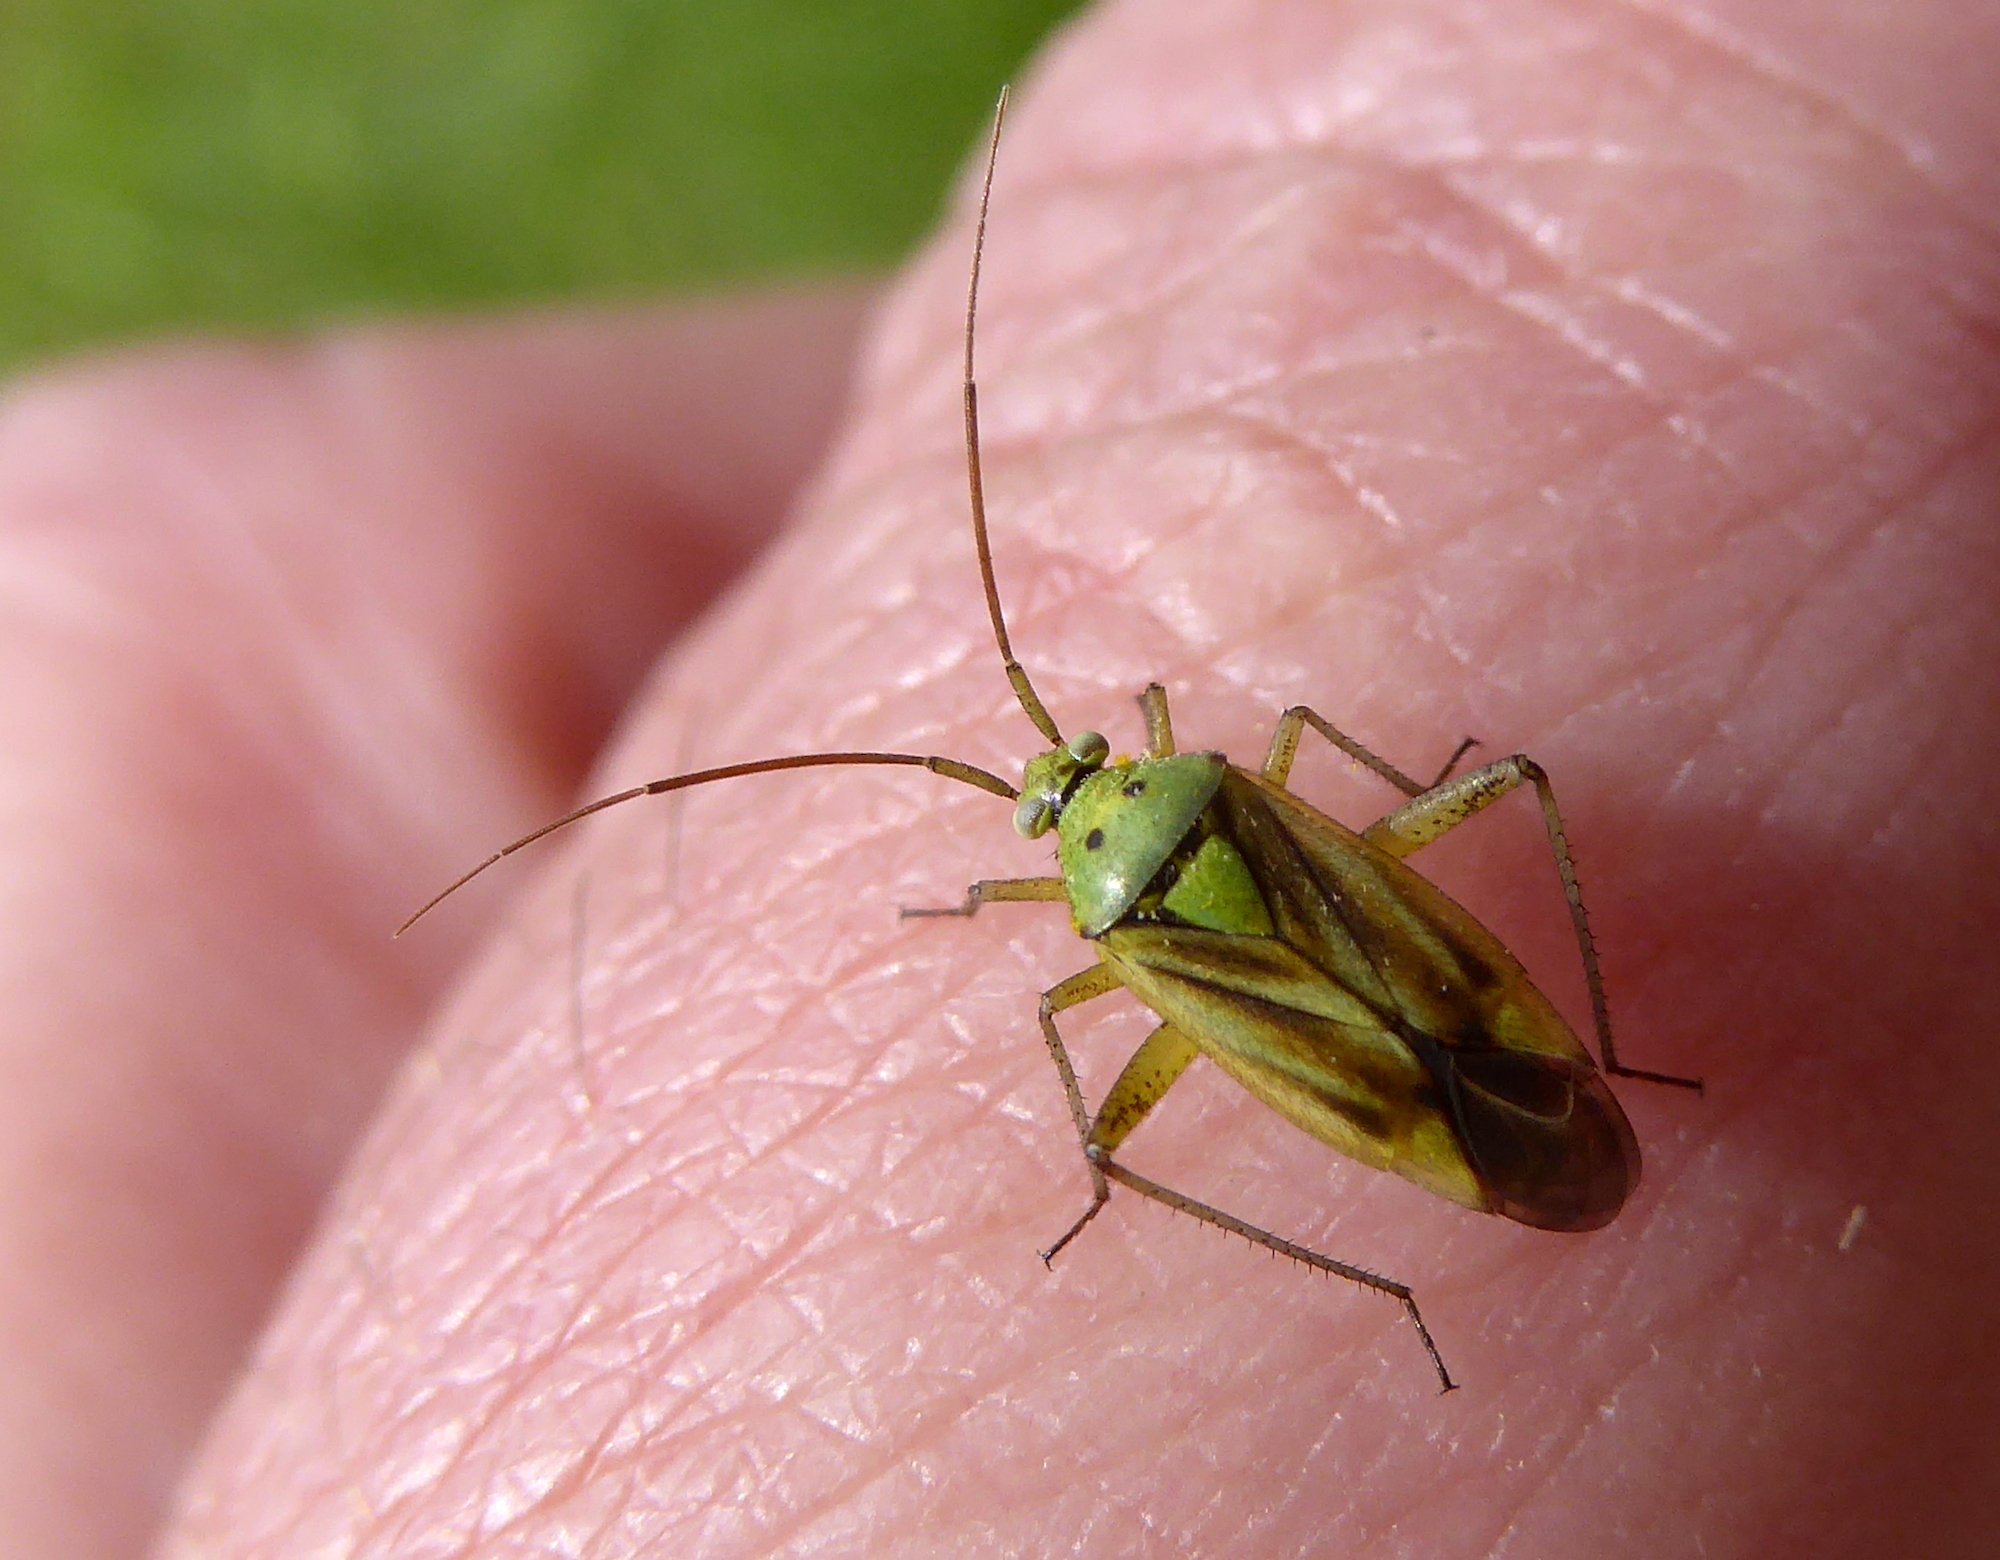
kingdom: Animalia
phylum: Arthropoda
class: Insecta
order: Hemiptera
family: Miridae
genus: Closterotomus
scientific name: Closterotomus norvegicus
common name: Plant bug
